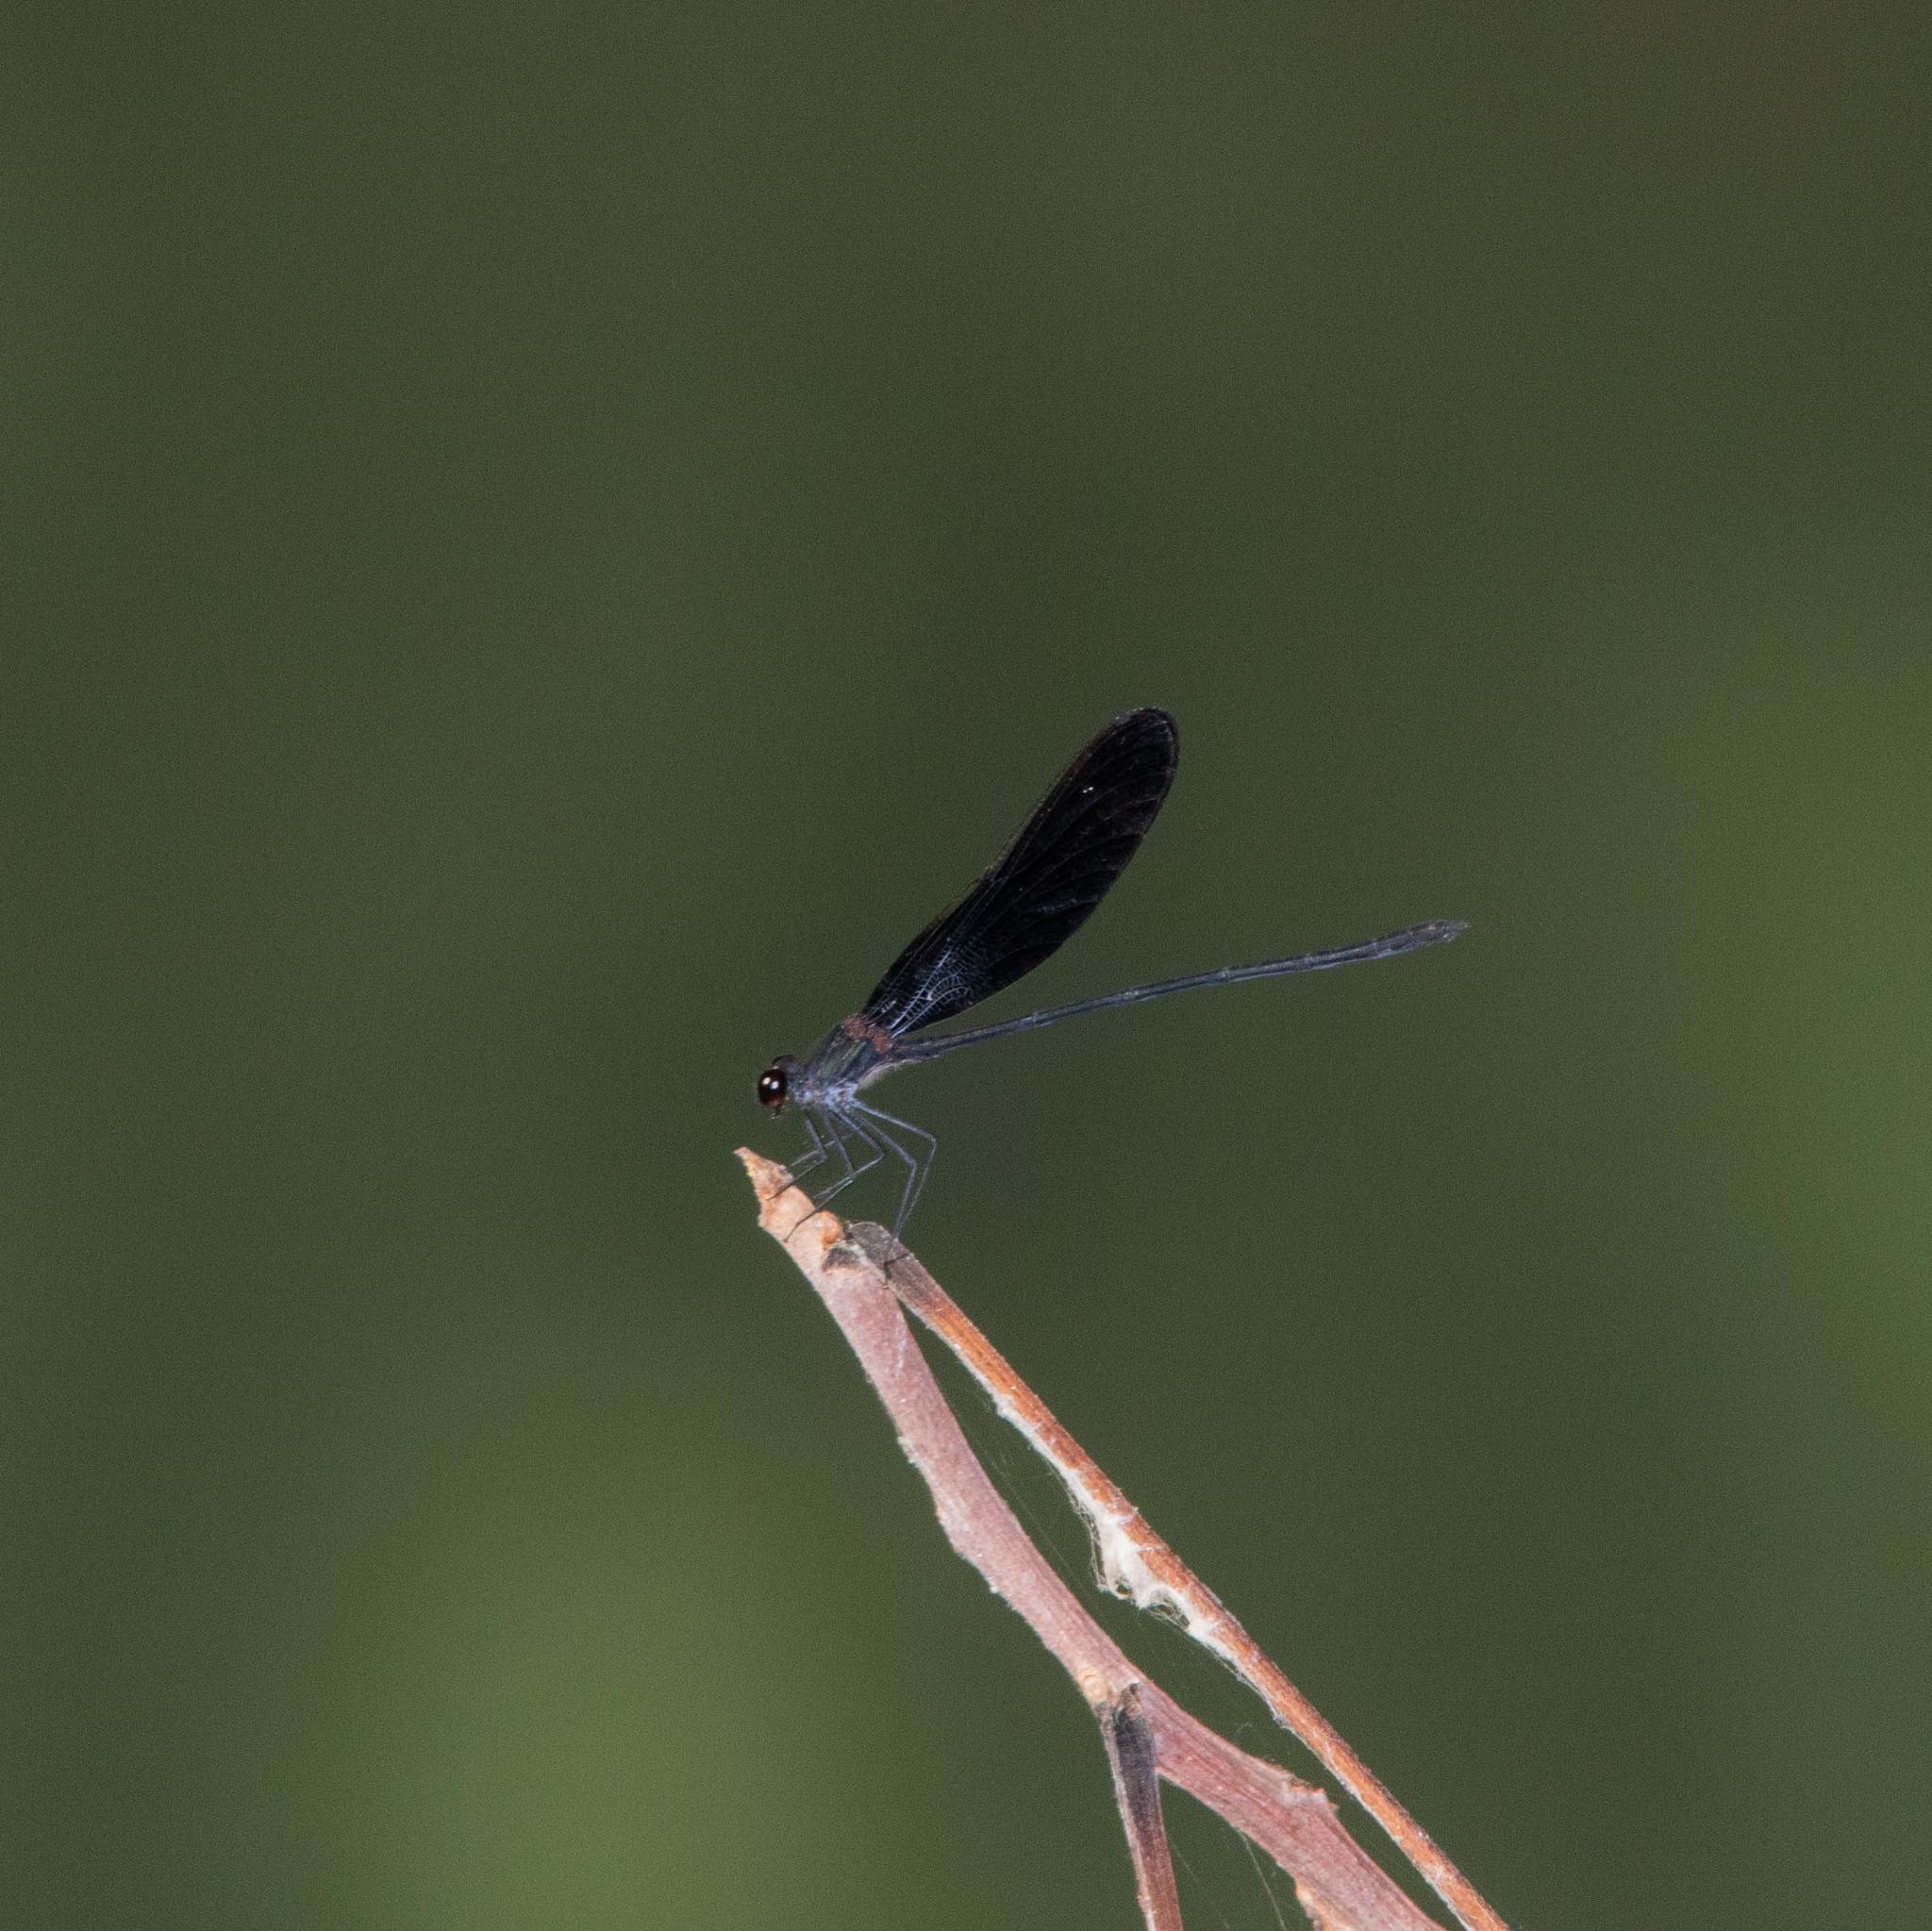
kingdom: Animalia
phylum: Arthropoda
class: Insecta
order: Odonata
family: Calopterygidae
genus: Hetaerina
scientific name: Hetaerina titia
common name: Smoky rubyspot
